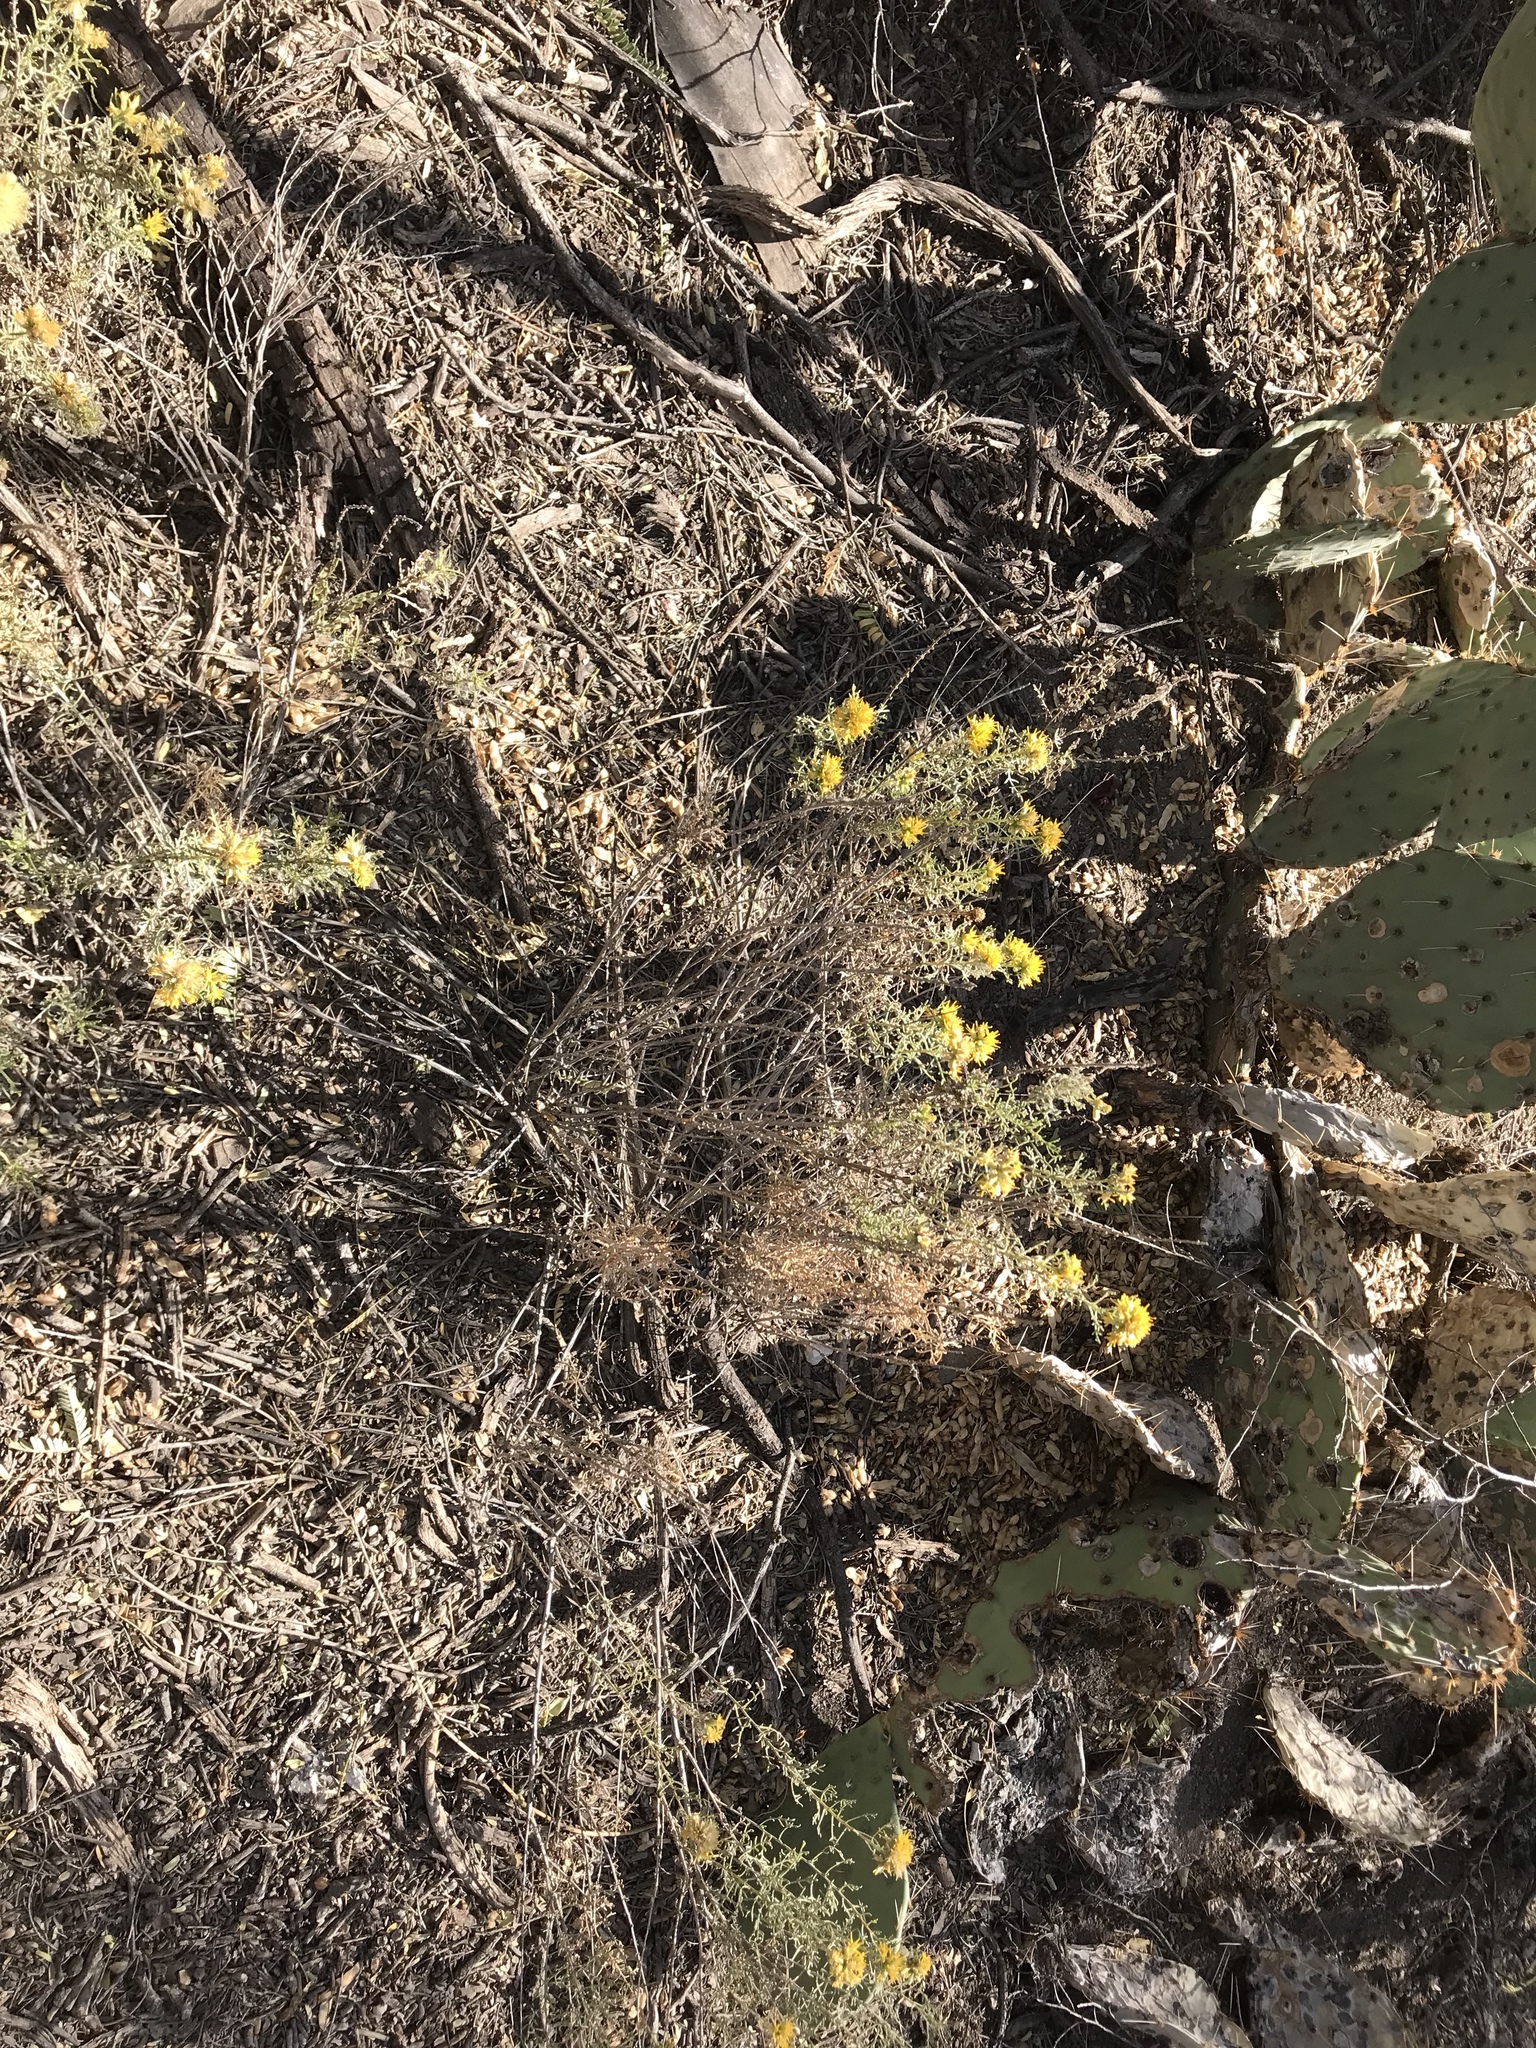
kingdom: Plantae
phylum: Tracheophyta
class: Magnoliopsida
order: Asterales
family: Asteraceae
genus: Isocoma
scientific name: Isocoma tenuisecta
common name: Burroweed
